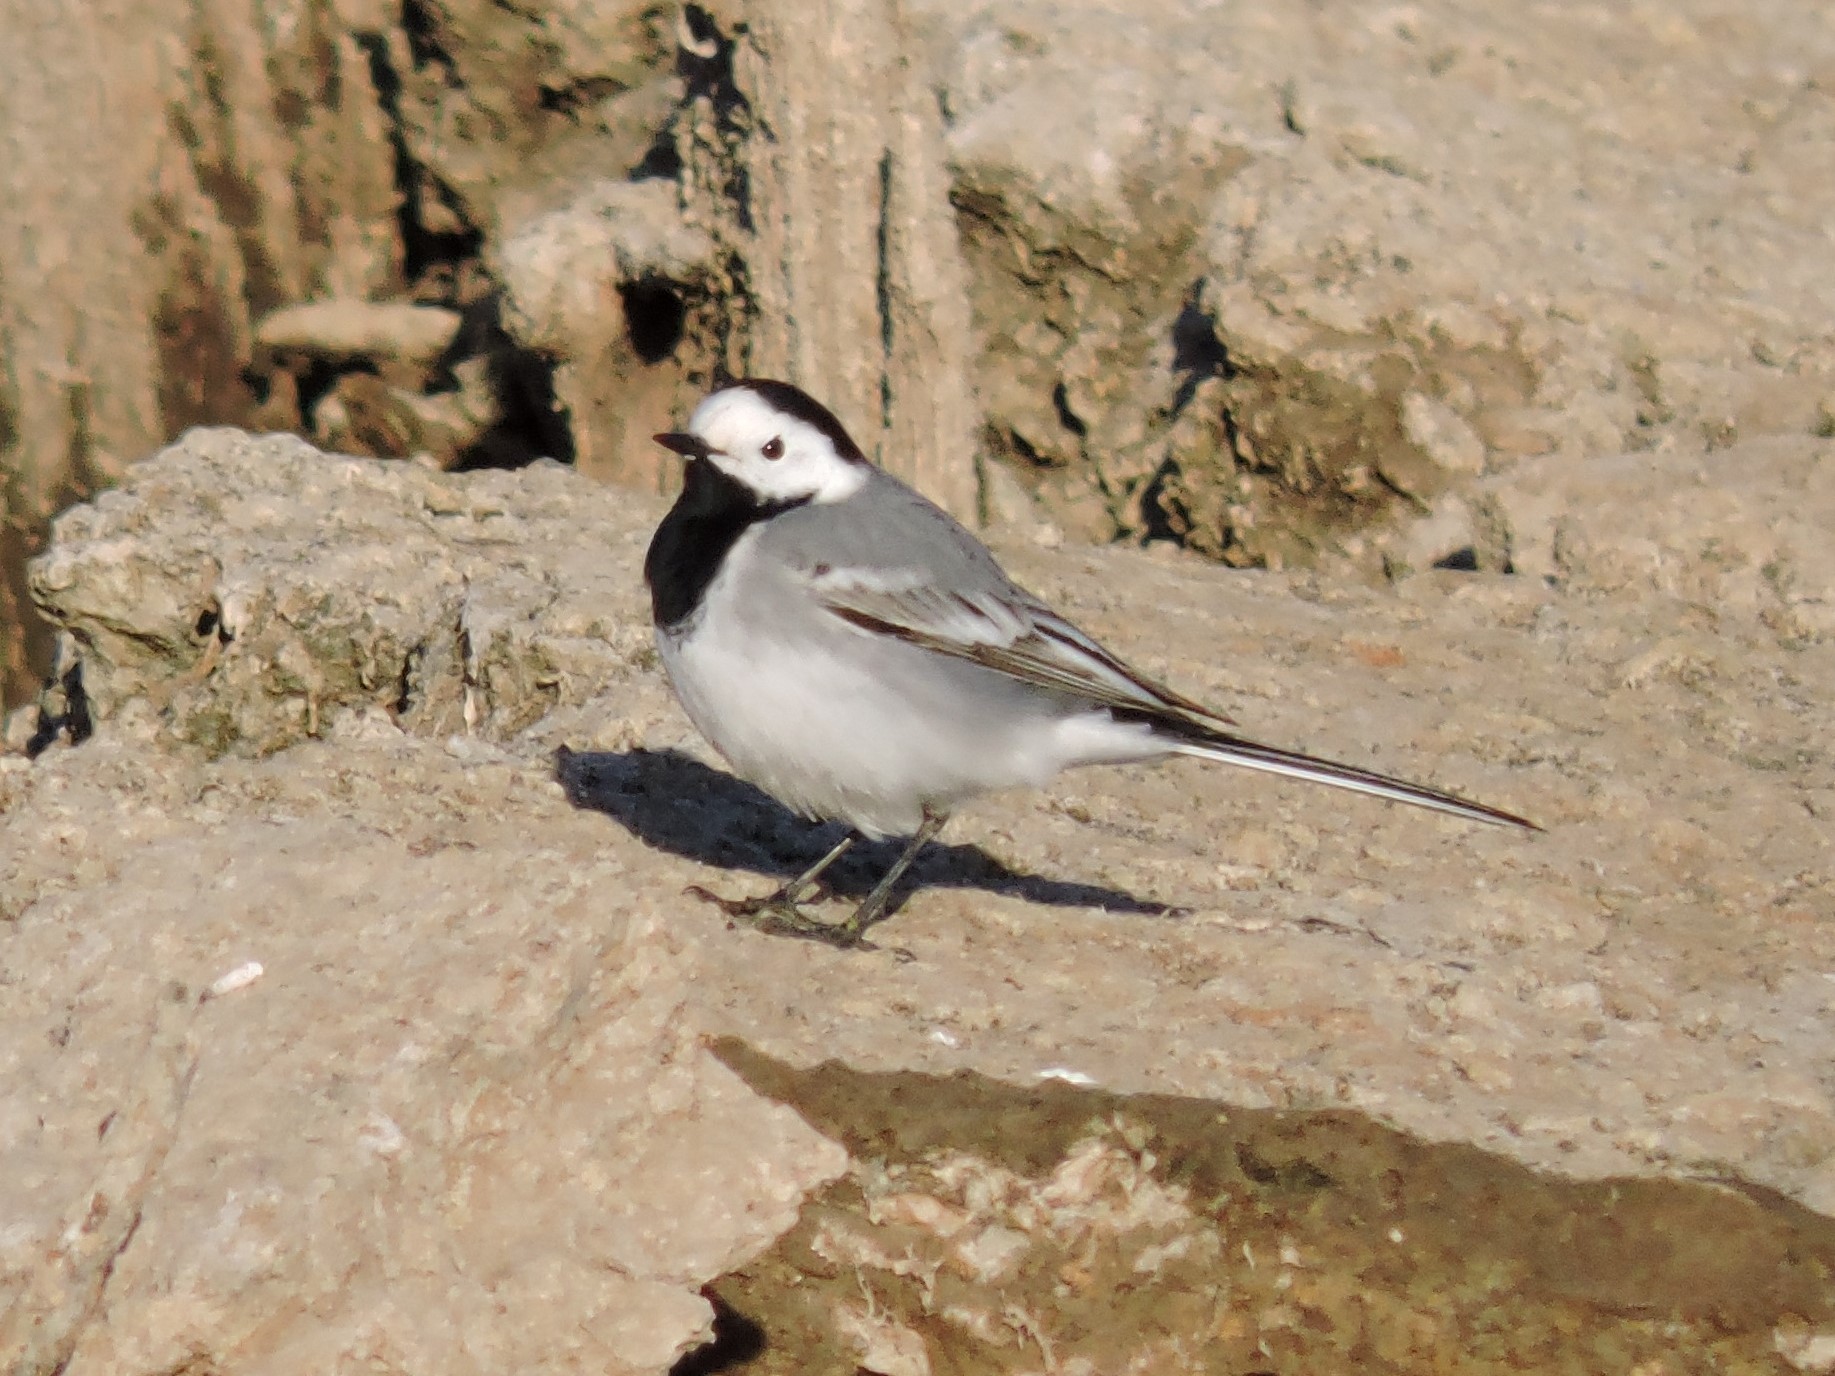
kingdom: Animalia
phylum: Chordata
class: Aves
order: Passeriformes
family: Motacillidae
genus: Motacilla
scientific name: Motacilla alba
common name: White wagtail
